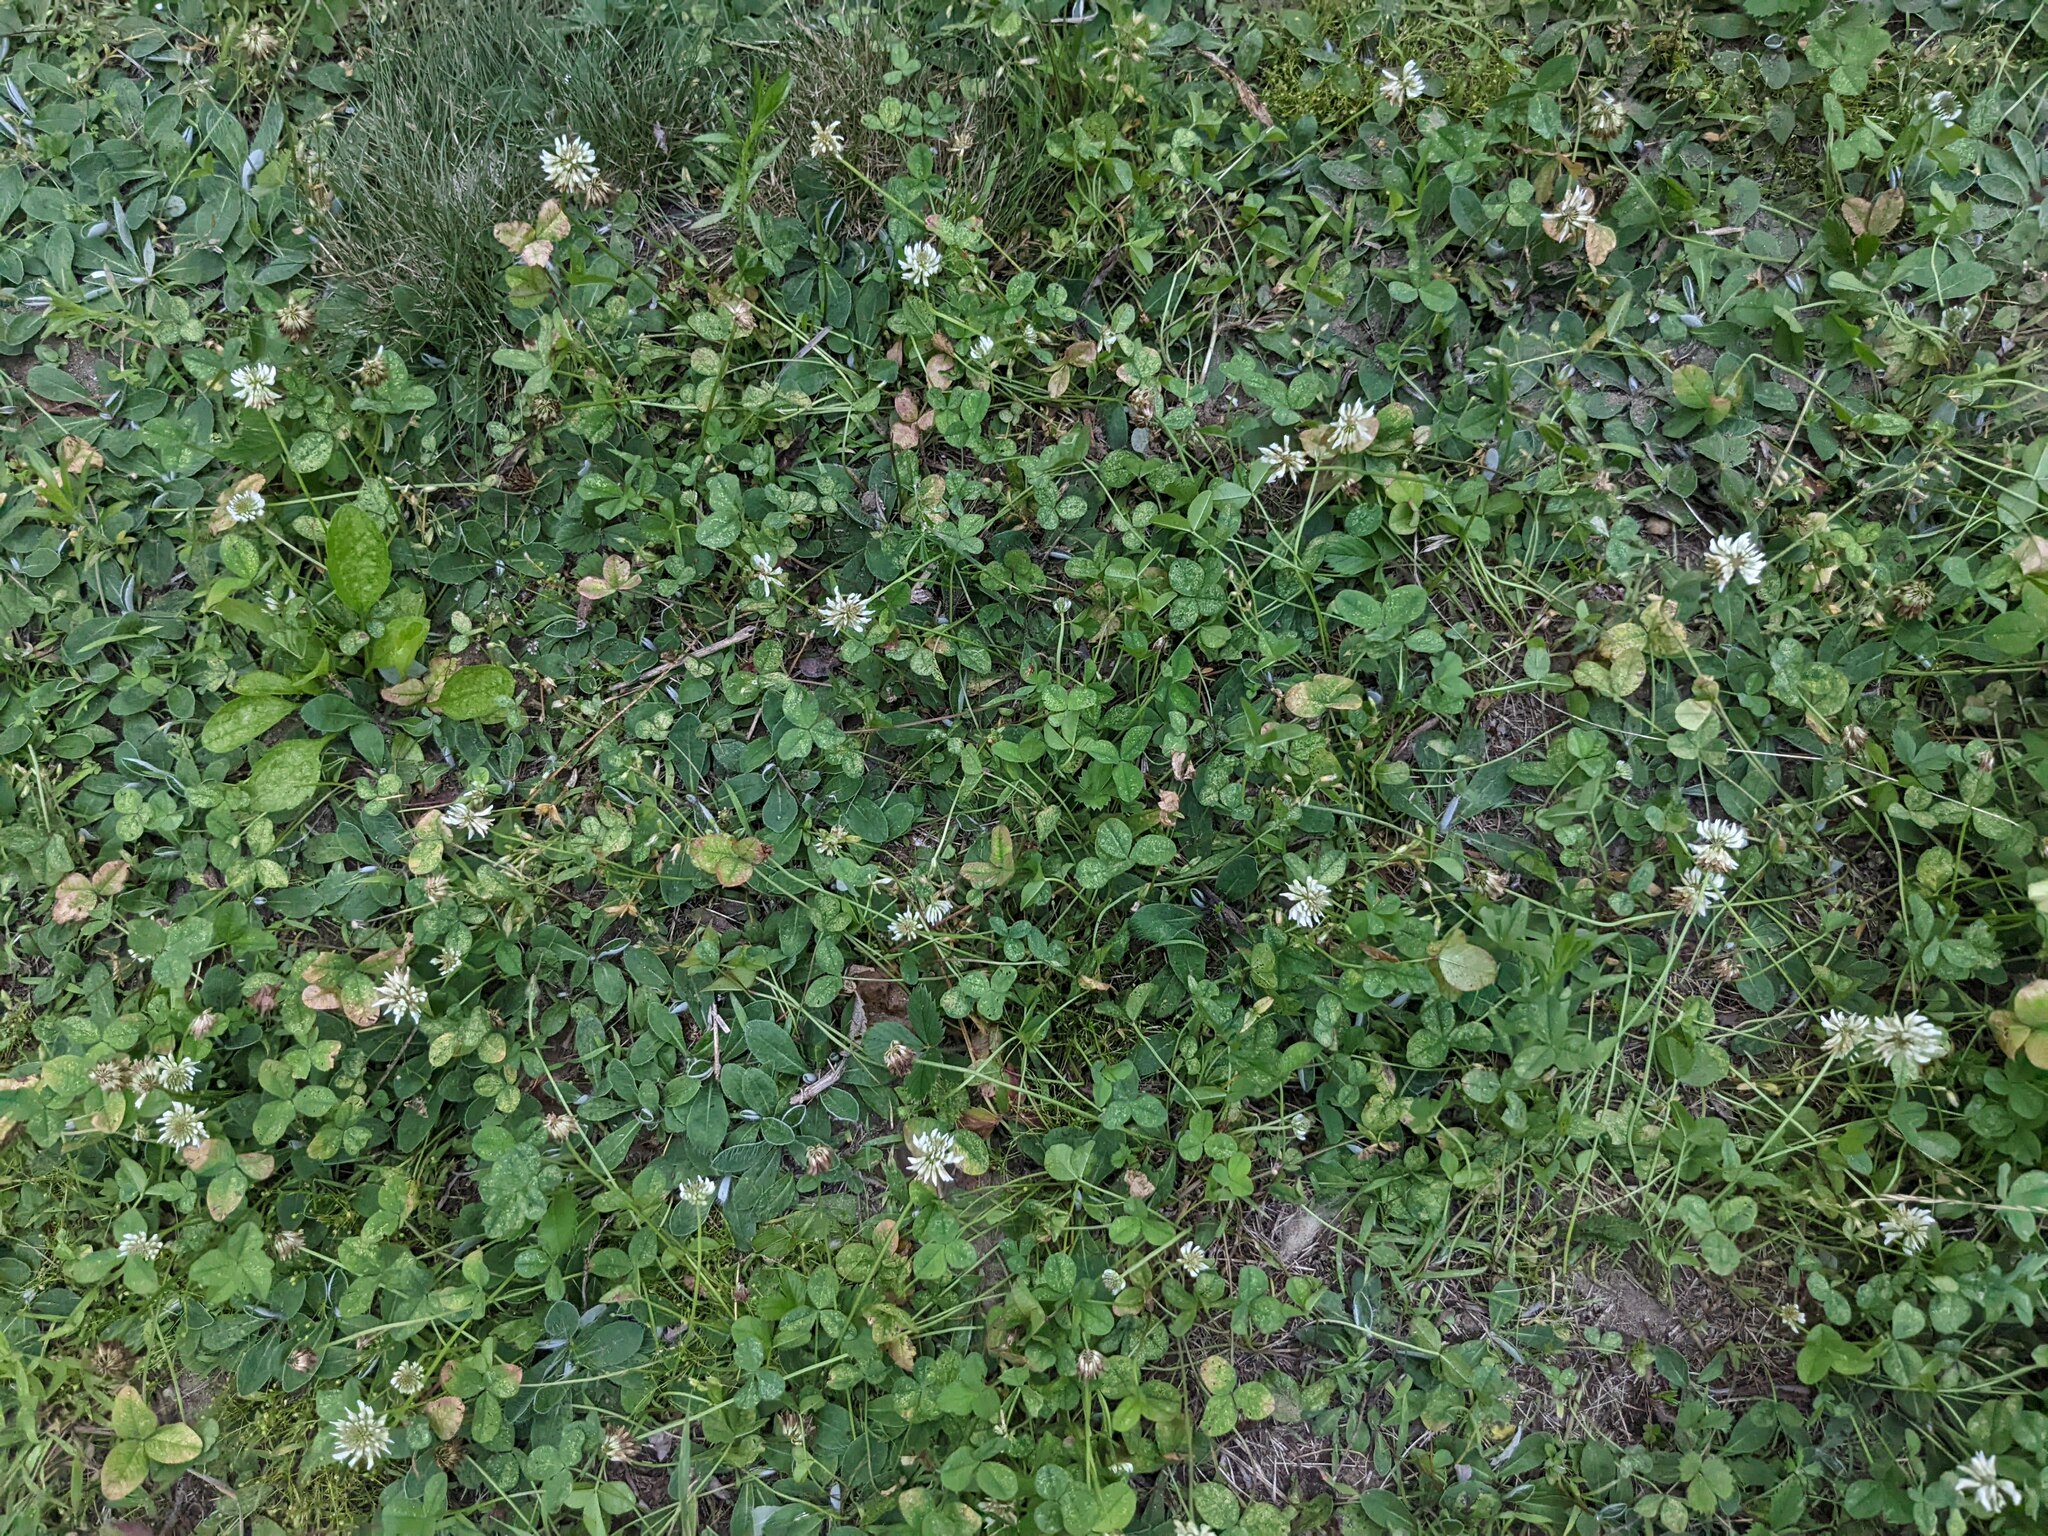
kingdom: Plantae
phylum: Tracheophyta
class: Magnoliopsida
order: Fabales
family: Fabaceae
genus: Trifolium
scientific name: Trifolium repens
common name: White clover
